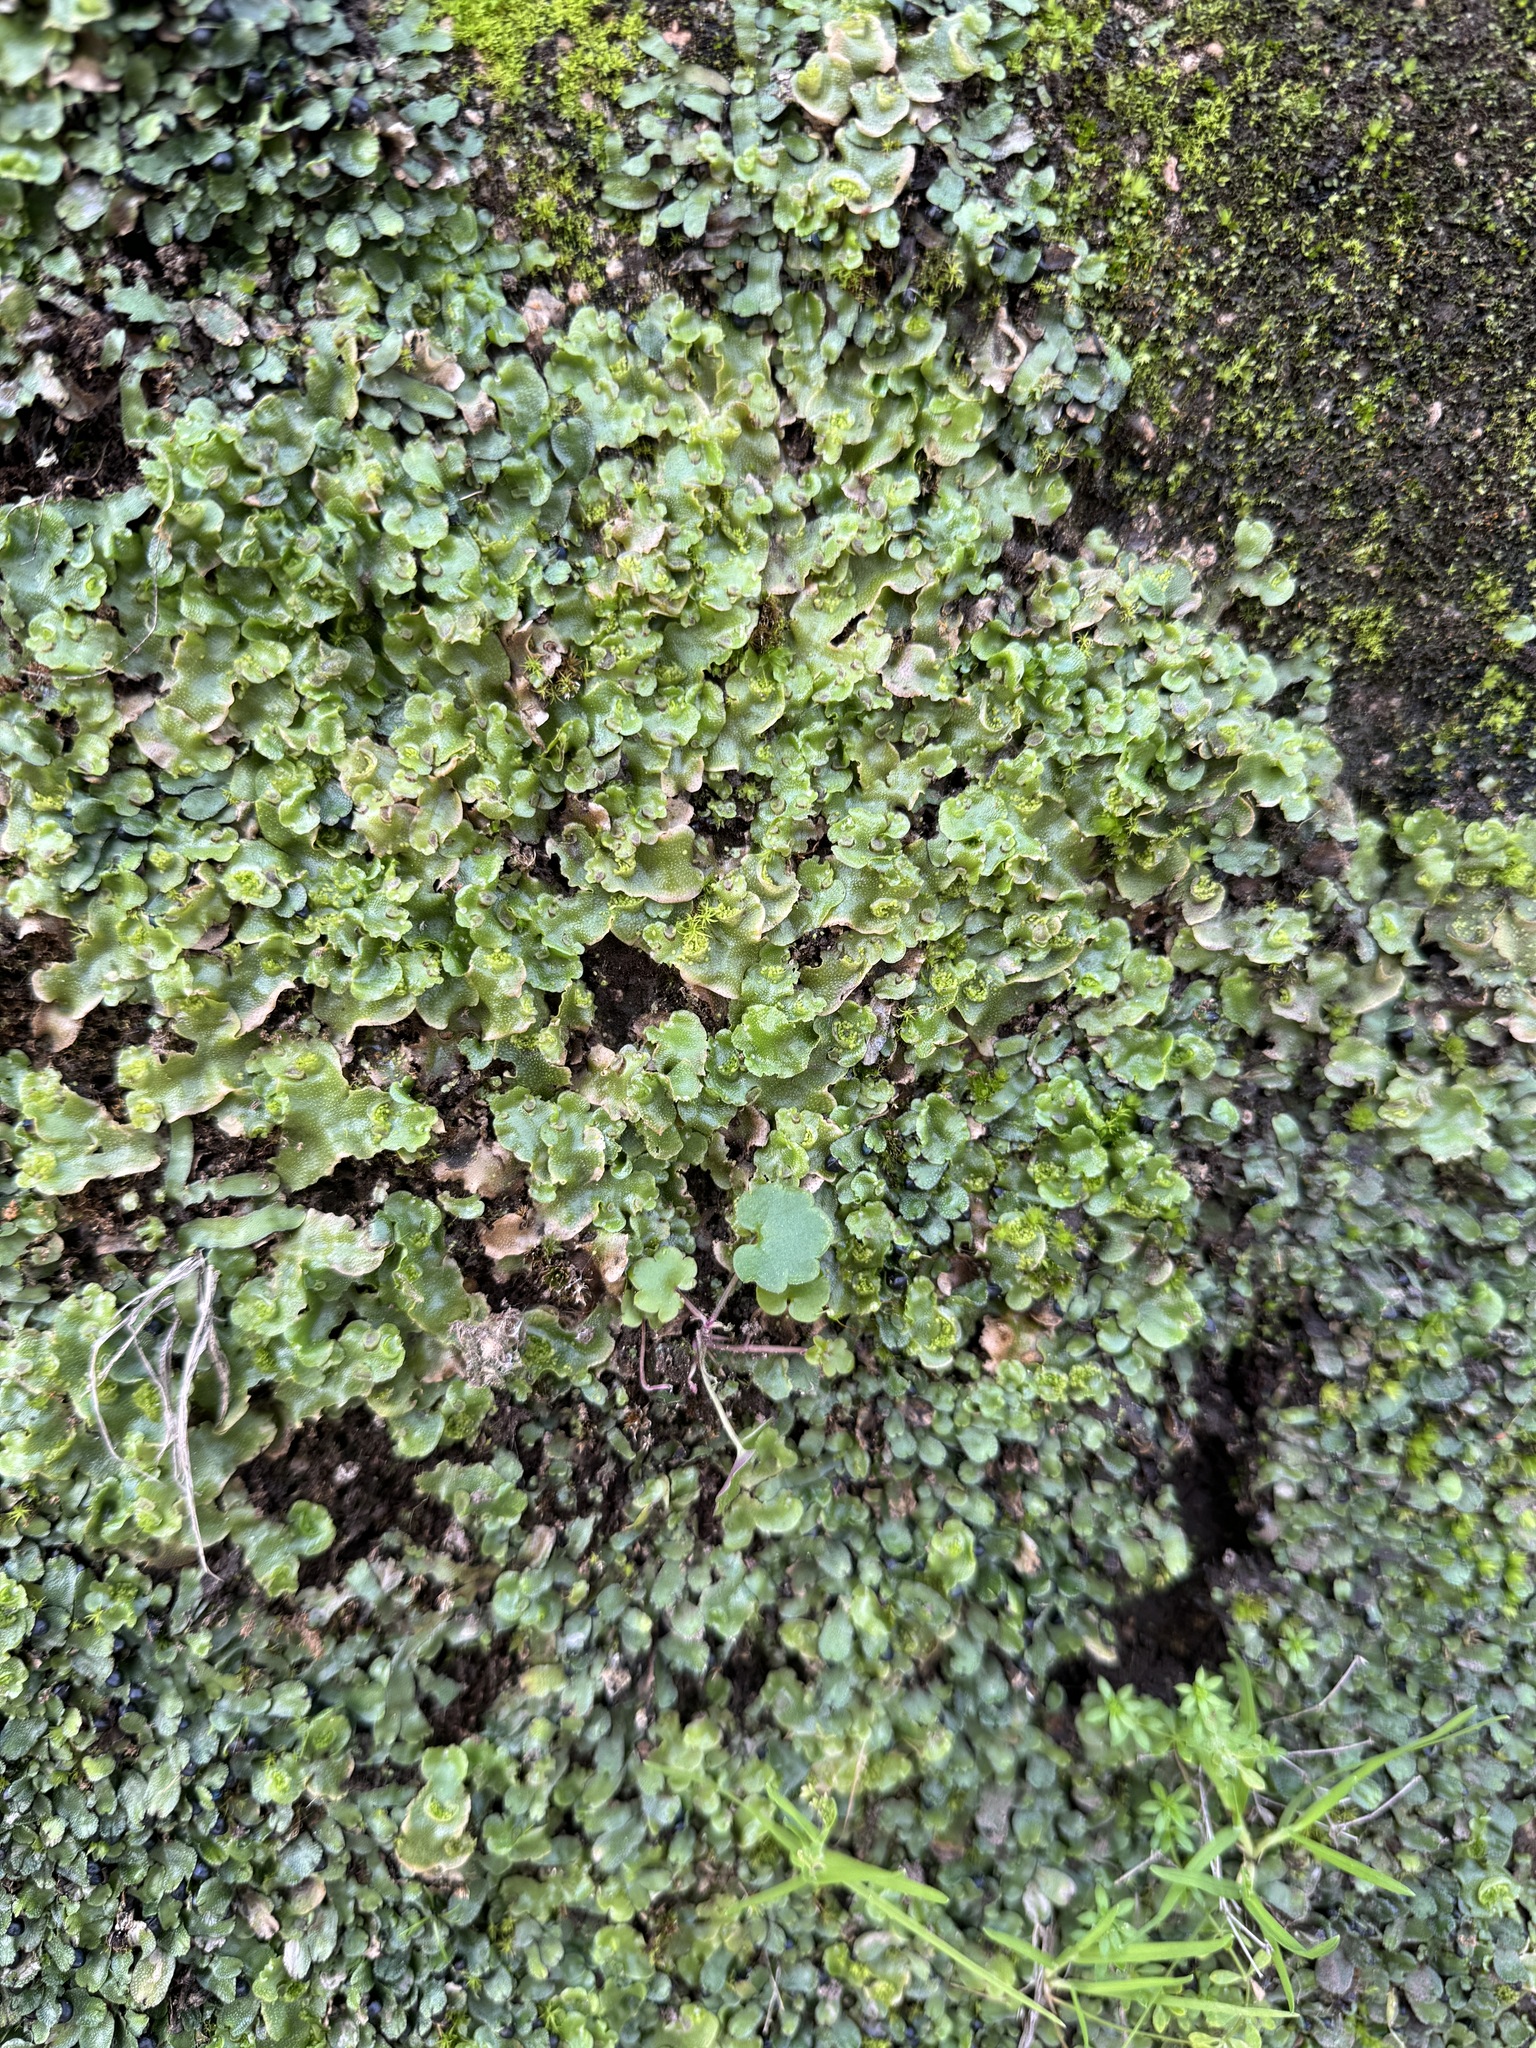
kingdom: Plantae
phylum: Marchantiophyta
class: Marchantiopsida
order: Lunulariales
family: Lunulariaceae
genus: Lunularia
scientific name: Lunularia cruciata
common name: Crescent-cup liverwort
